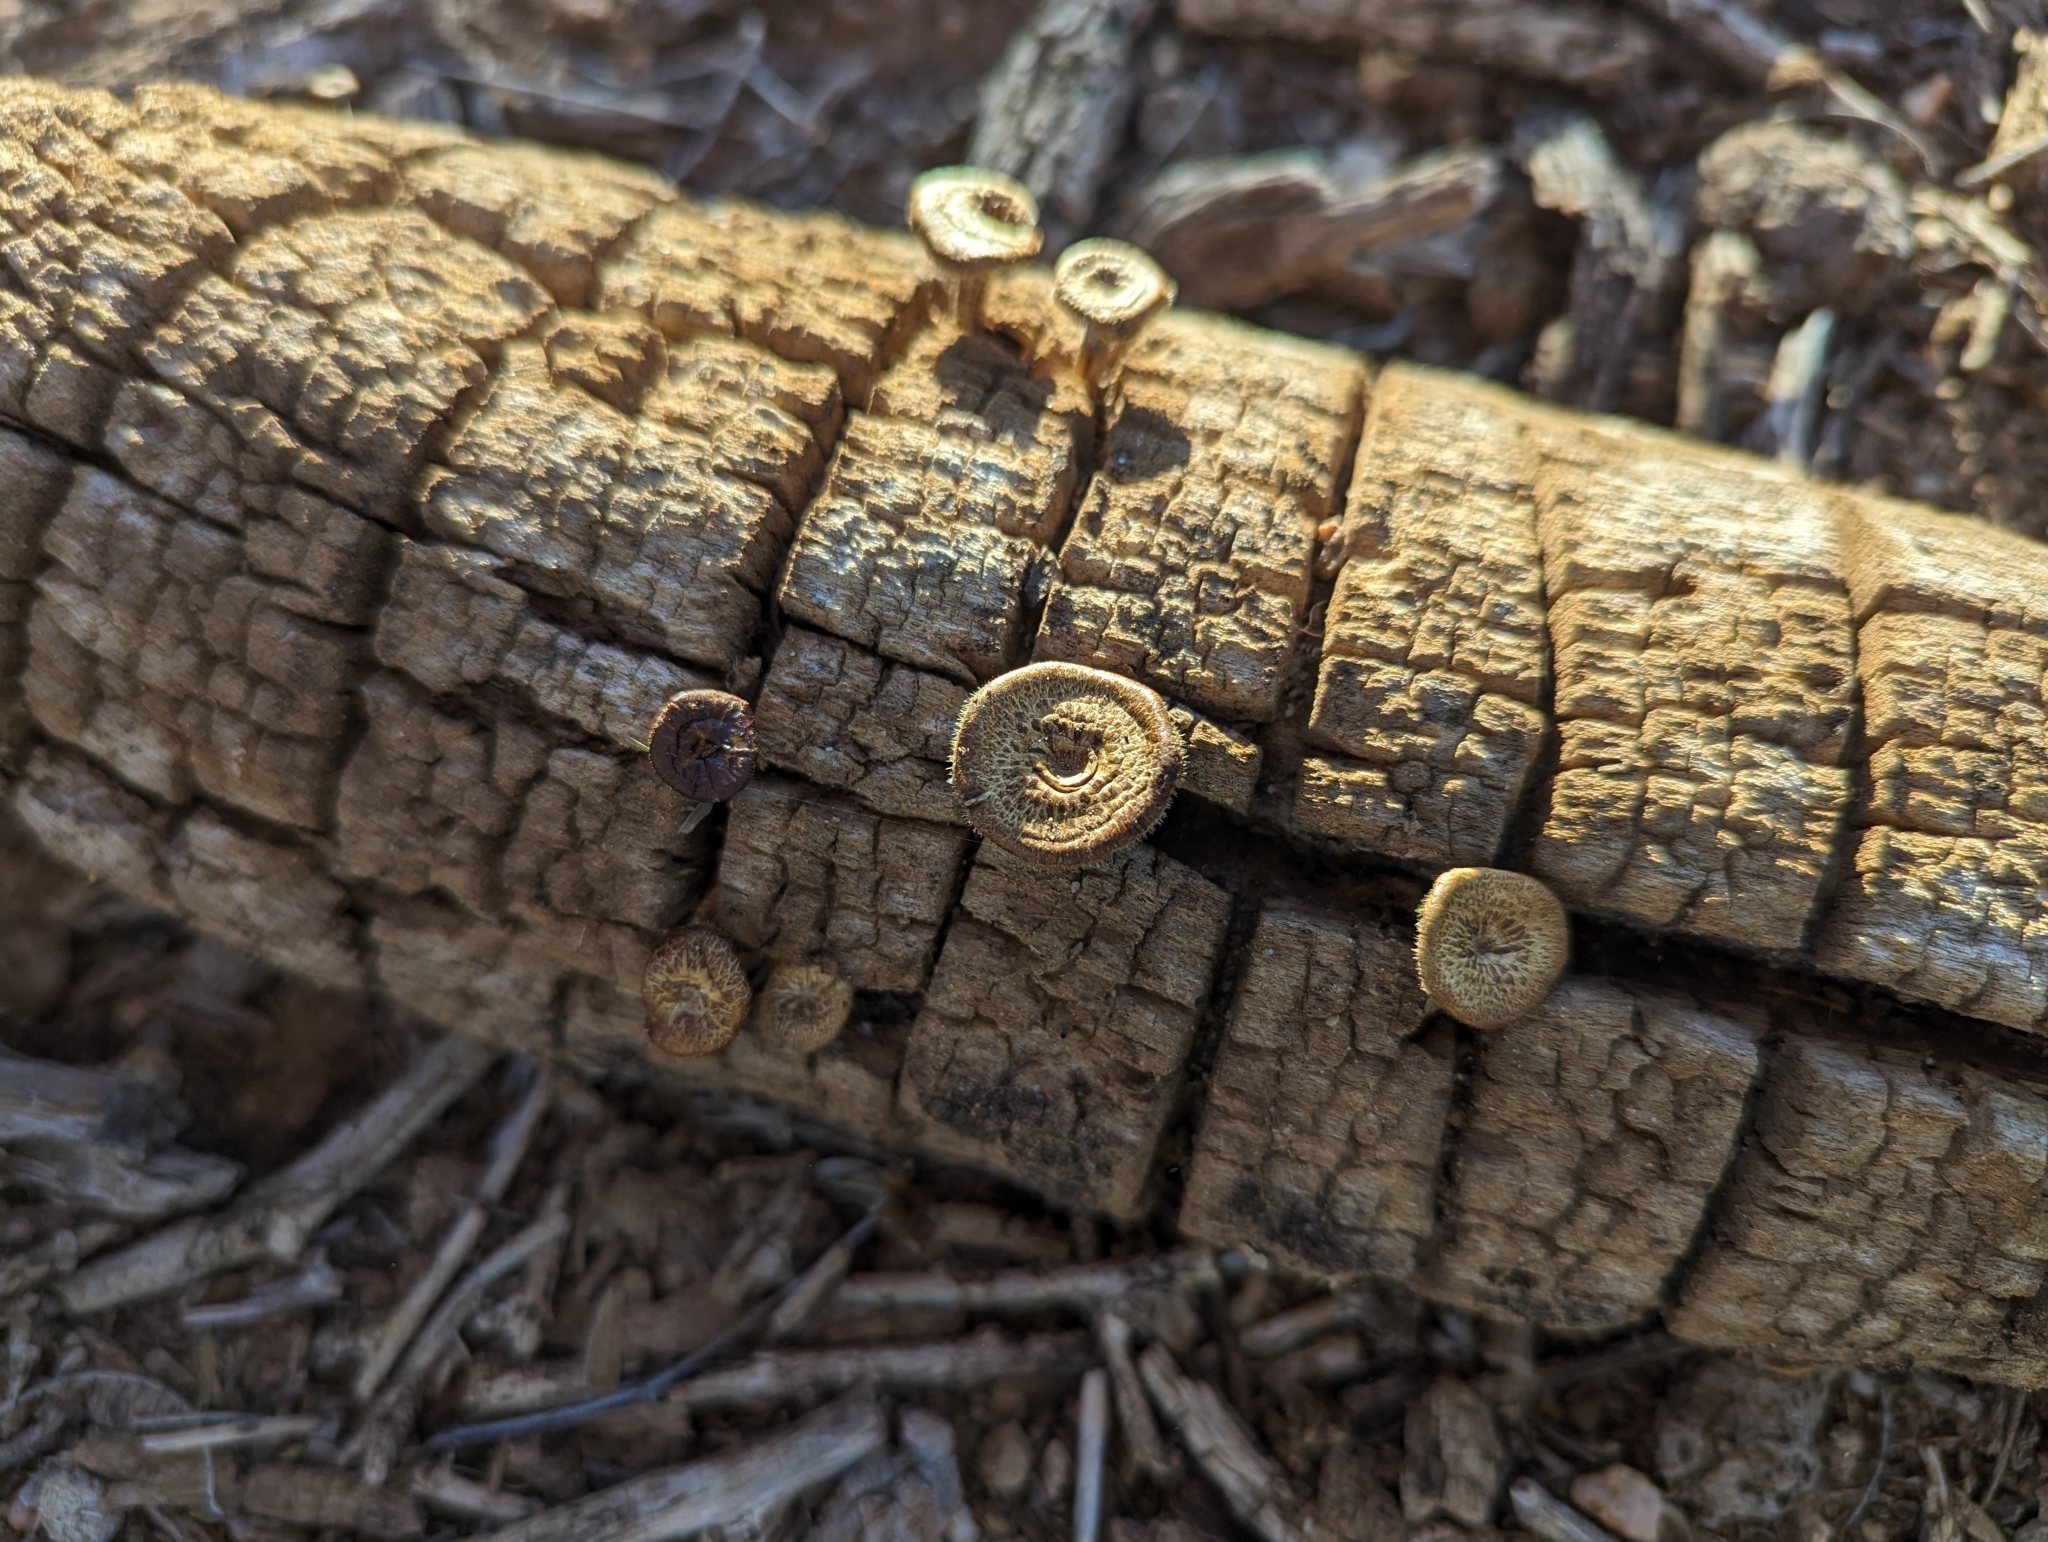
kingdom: Fungi
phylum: Basidiomycota
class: Agaricomycetes
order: Polyporales
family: Polyporaceae
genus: Lentinus
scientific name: Lentinus arcularius
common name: Spring polypore
